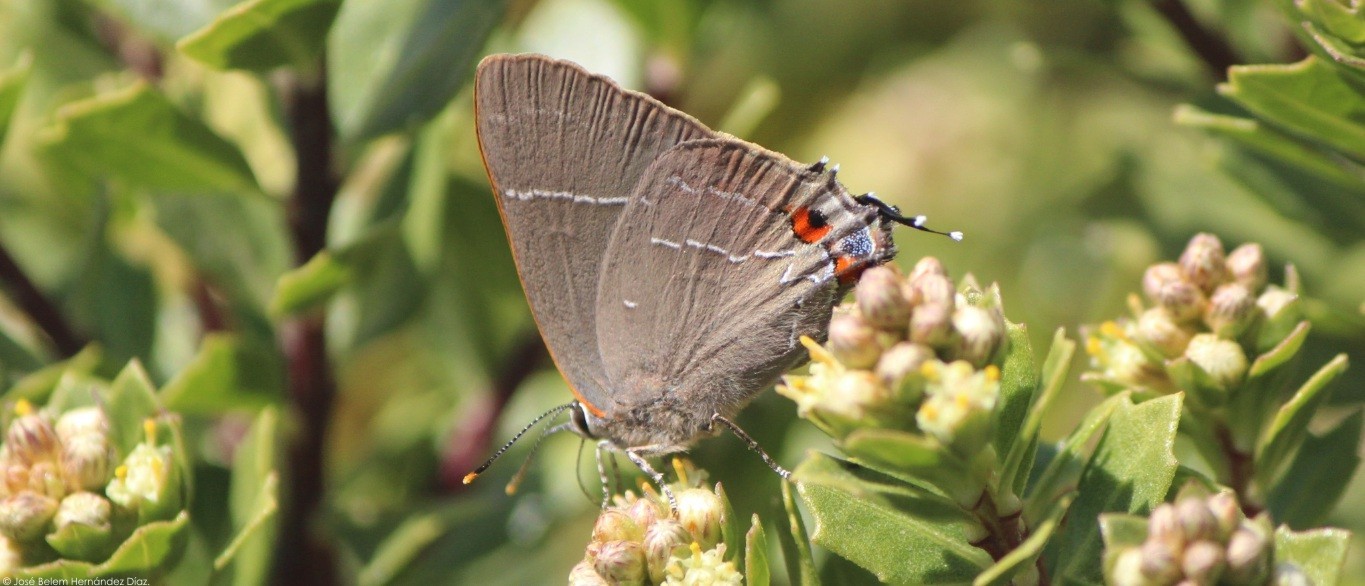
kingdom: Animalia
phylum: Arthropoda
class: Insecta
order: Lepidoptera
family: Lycaenidae
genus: Parrhasius
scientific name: Parrhasius
